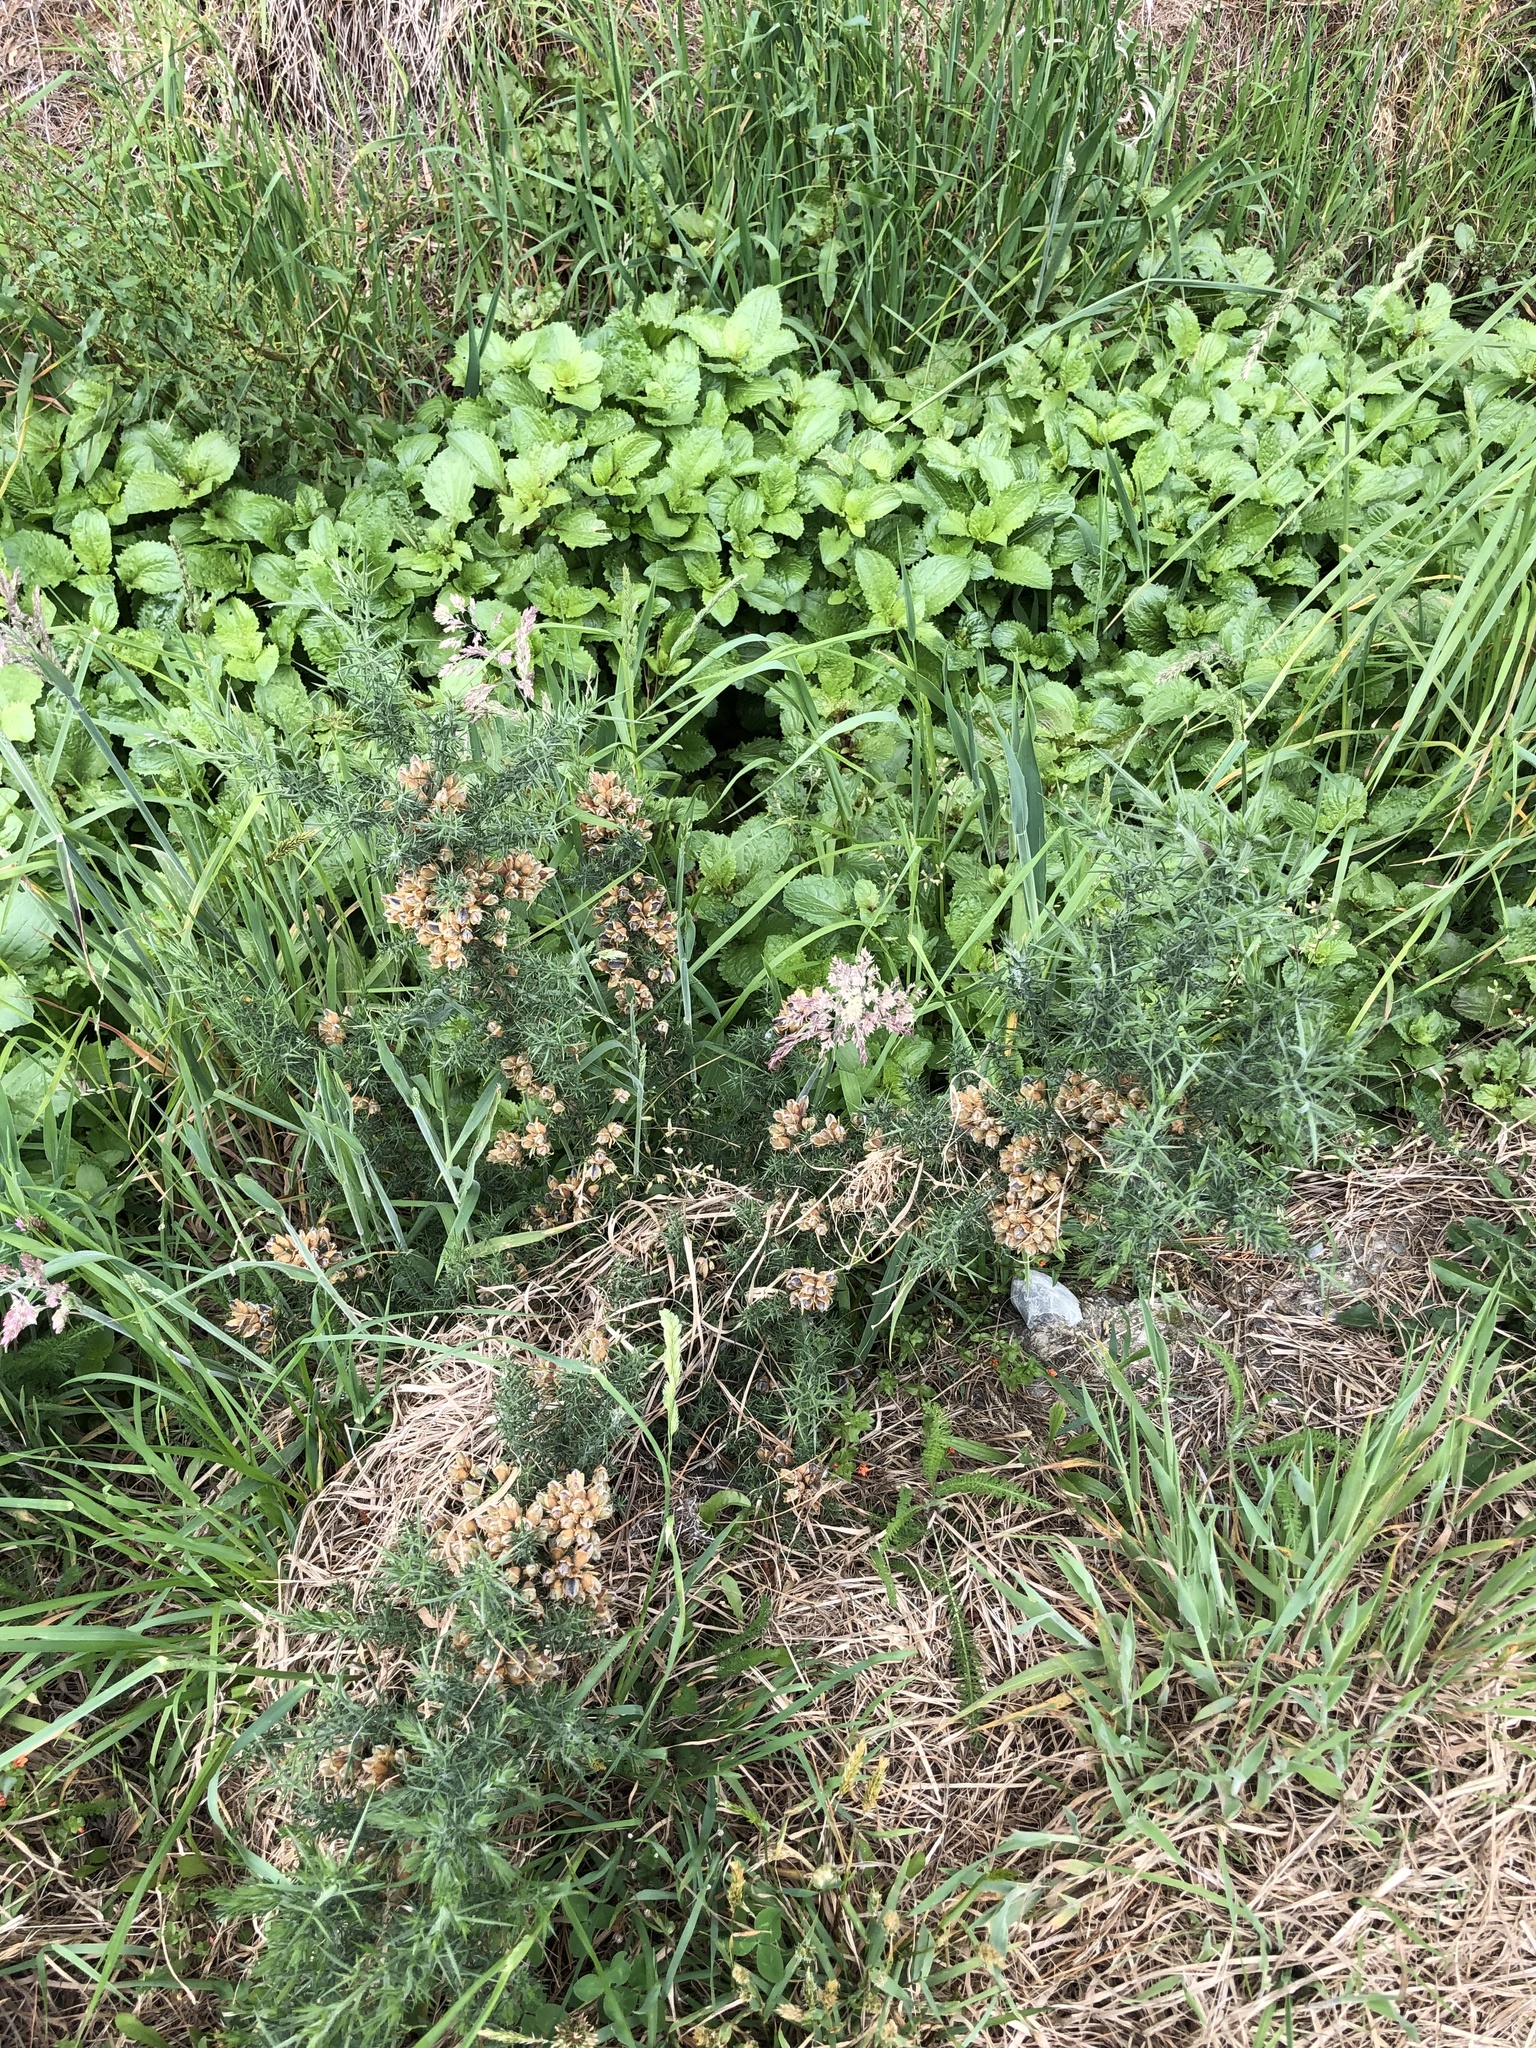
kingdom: Plantae
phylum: Tracheophyta
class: Magnoliopsida
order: Fabales
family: Fabaceae
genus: Ulex
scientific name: Ulex europaeus
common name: Common gorse
